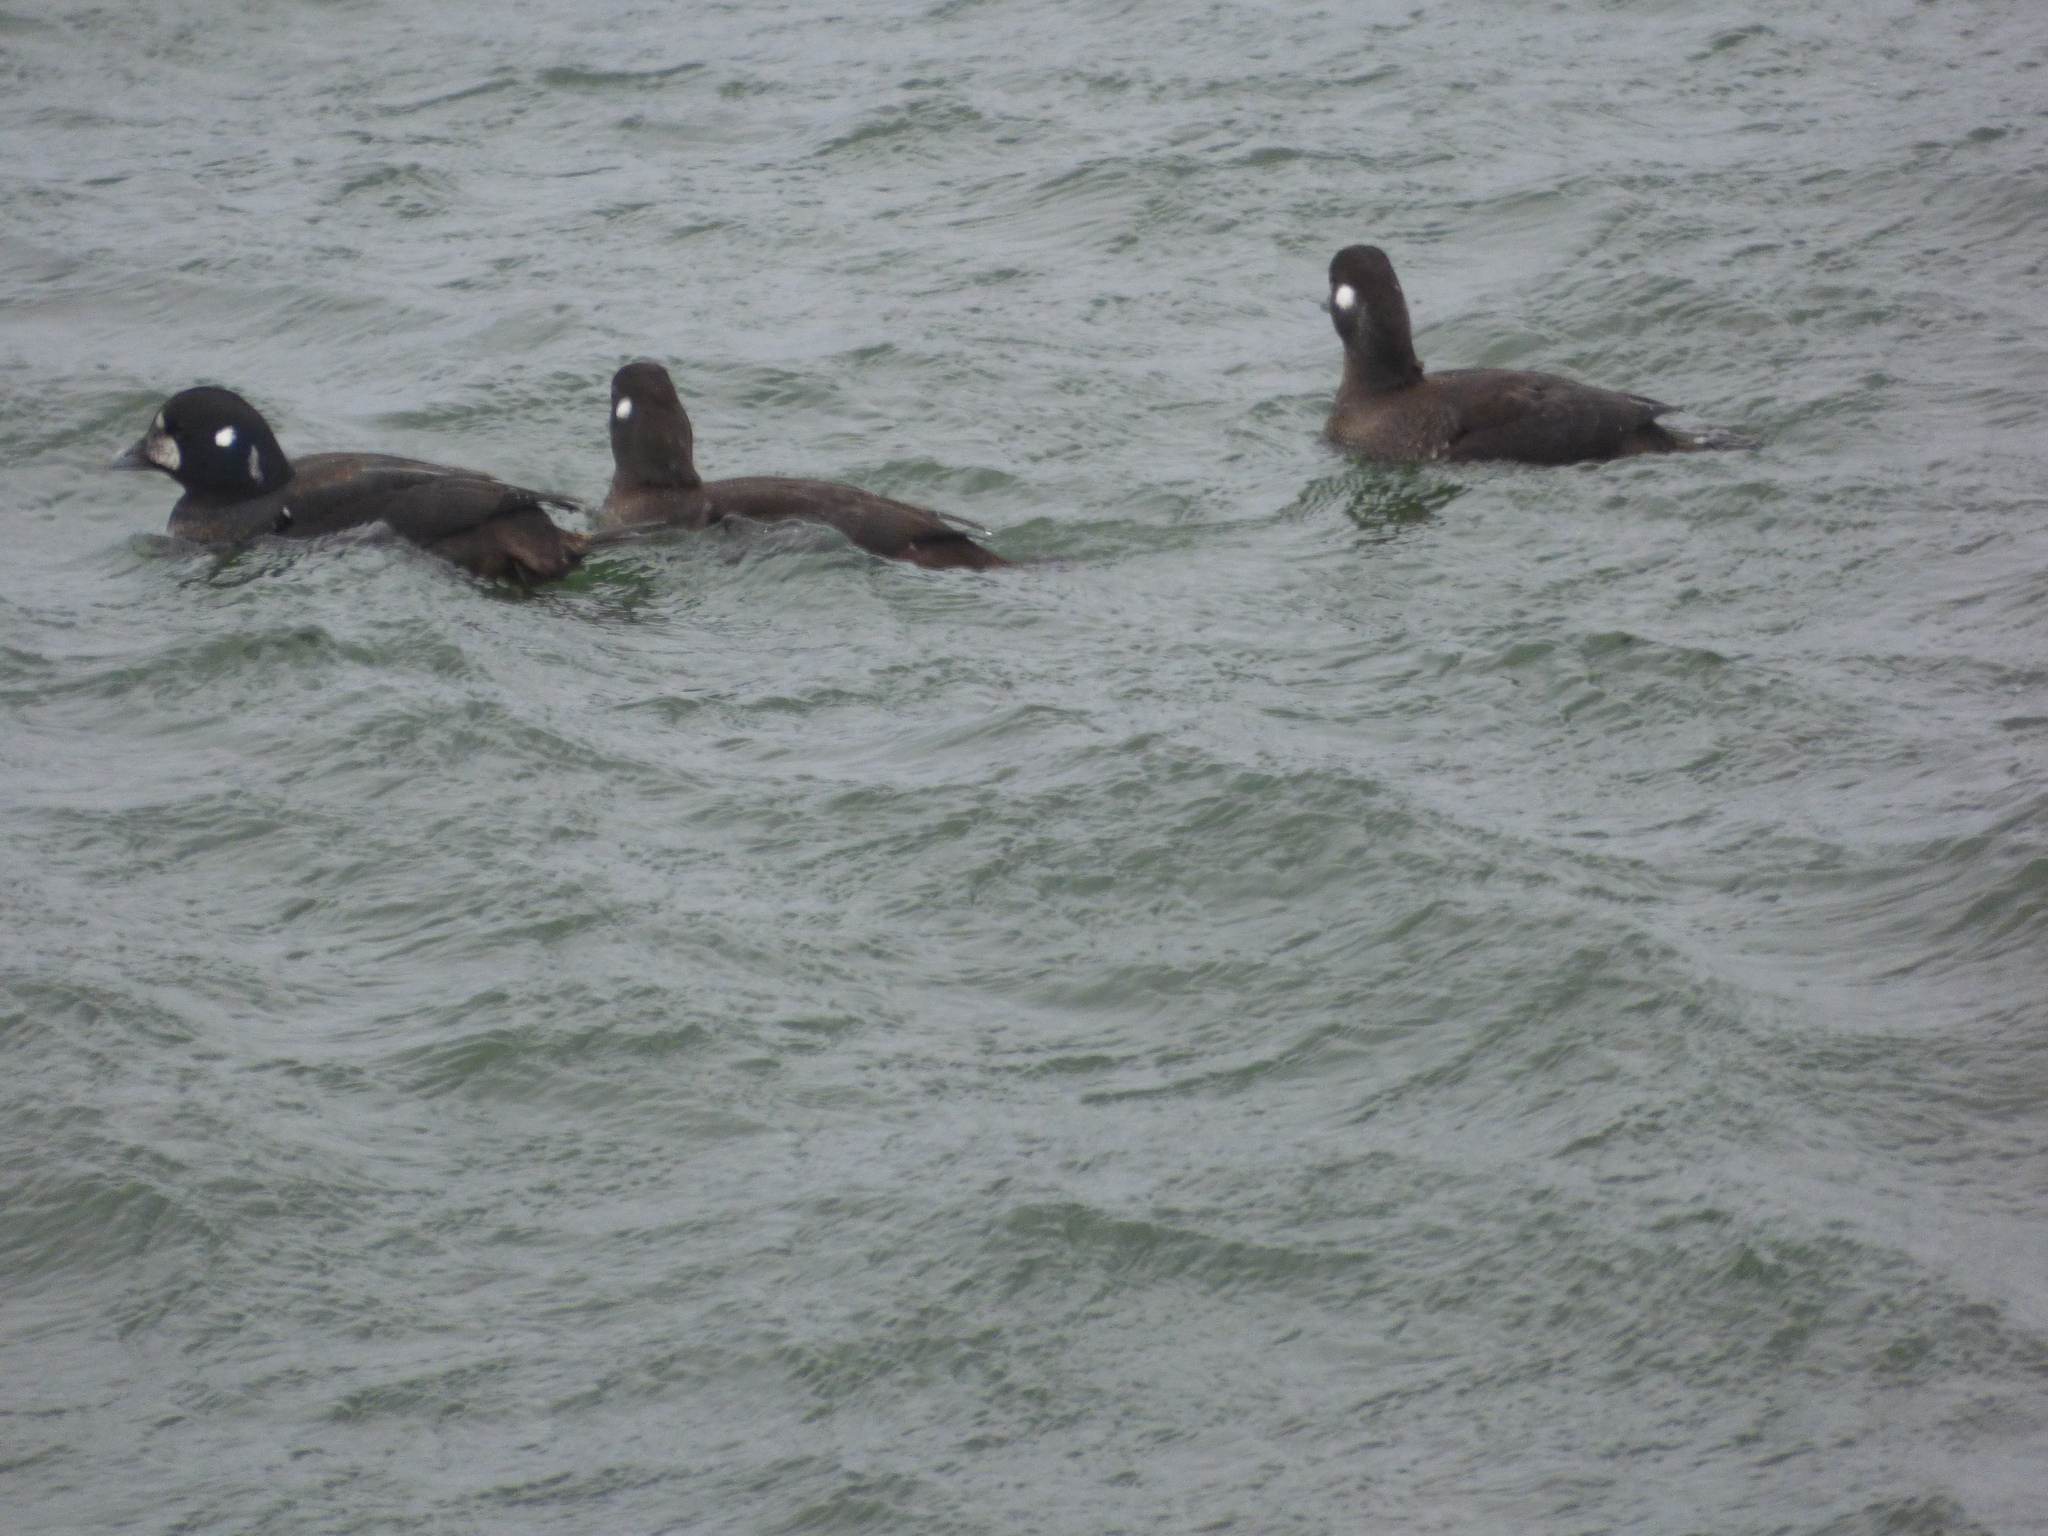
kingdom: Animalia
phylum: Chordata
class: Aves
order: Anseriformes
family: Anatidae
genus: Histrionicus
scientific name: Histrionicus histrionicus
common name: Harlequin duck
